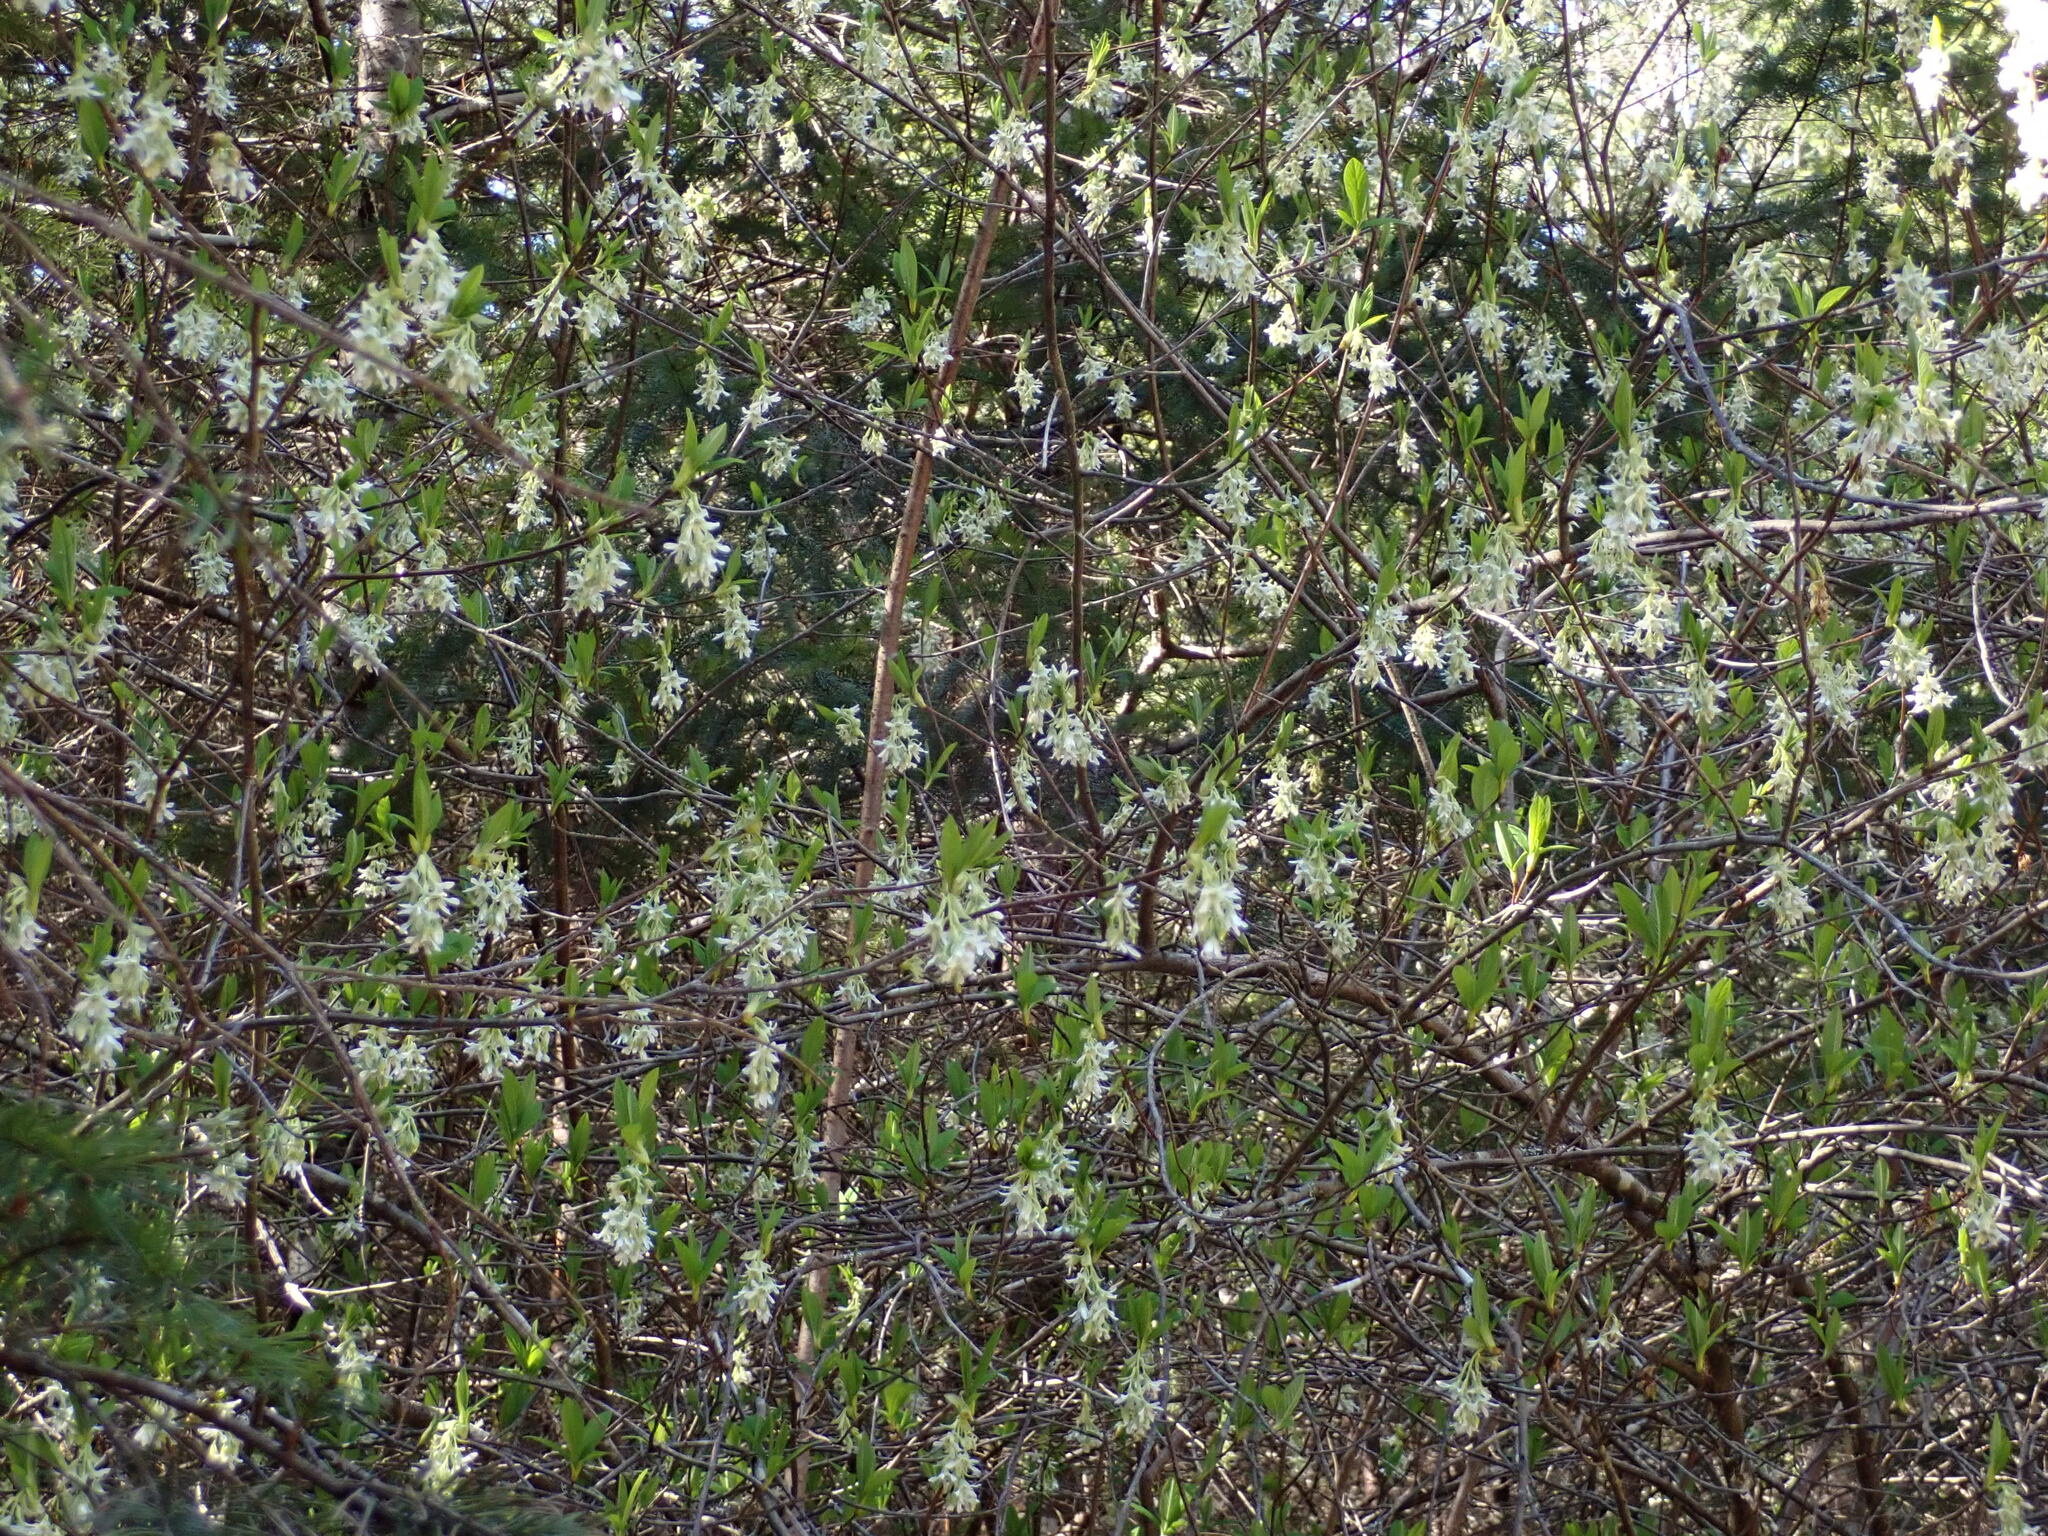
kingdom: Plantae
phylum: Tracheophyta
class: Magnoliopsida
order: Rosales
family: Rosaceae
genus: Oemleria
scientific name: Oemleria cerasiformis
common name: Osoberry
